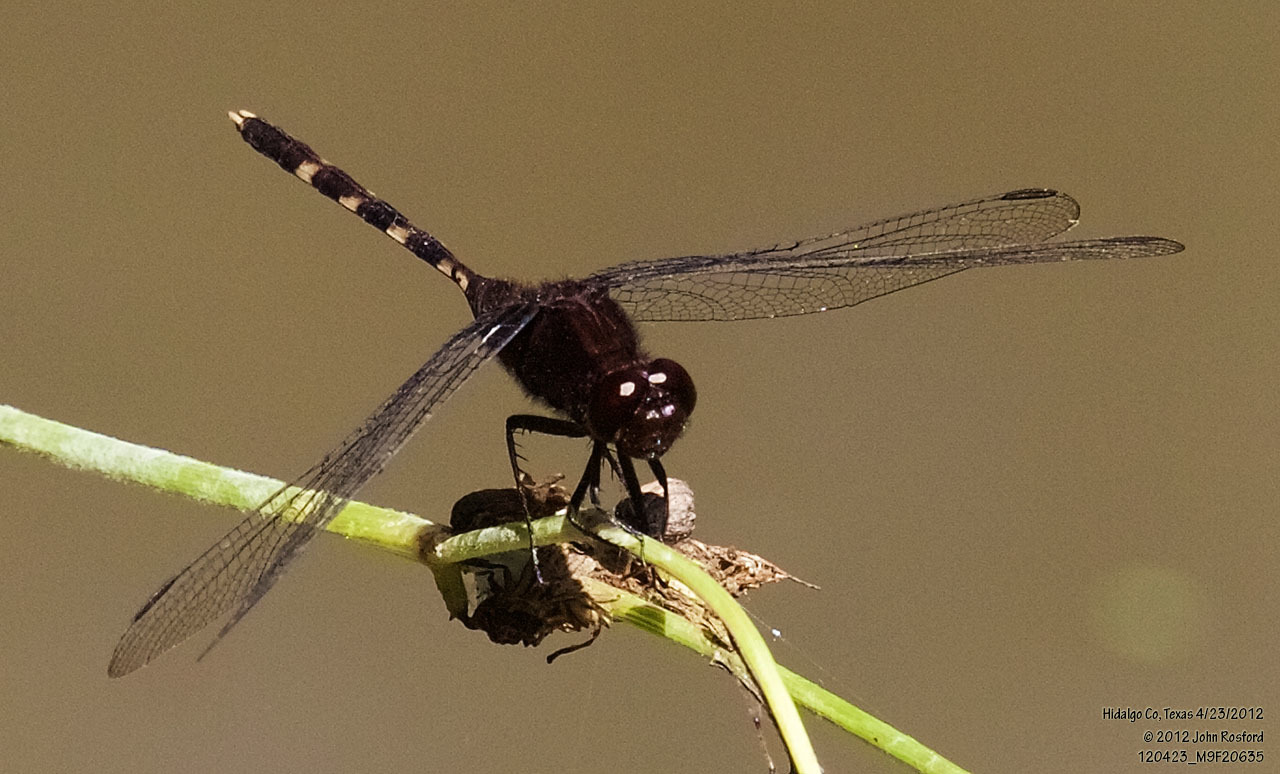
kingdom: Animalia
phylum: Arthropoda
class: Insecta
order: Odonata
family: Libellulidae
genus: Erythemis
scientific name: Erythemis plebeja
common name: Pin-tailed pondhawk
